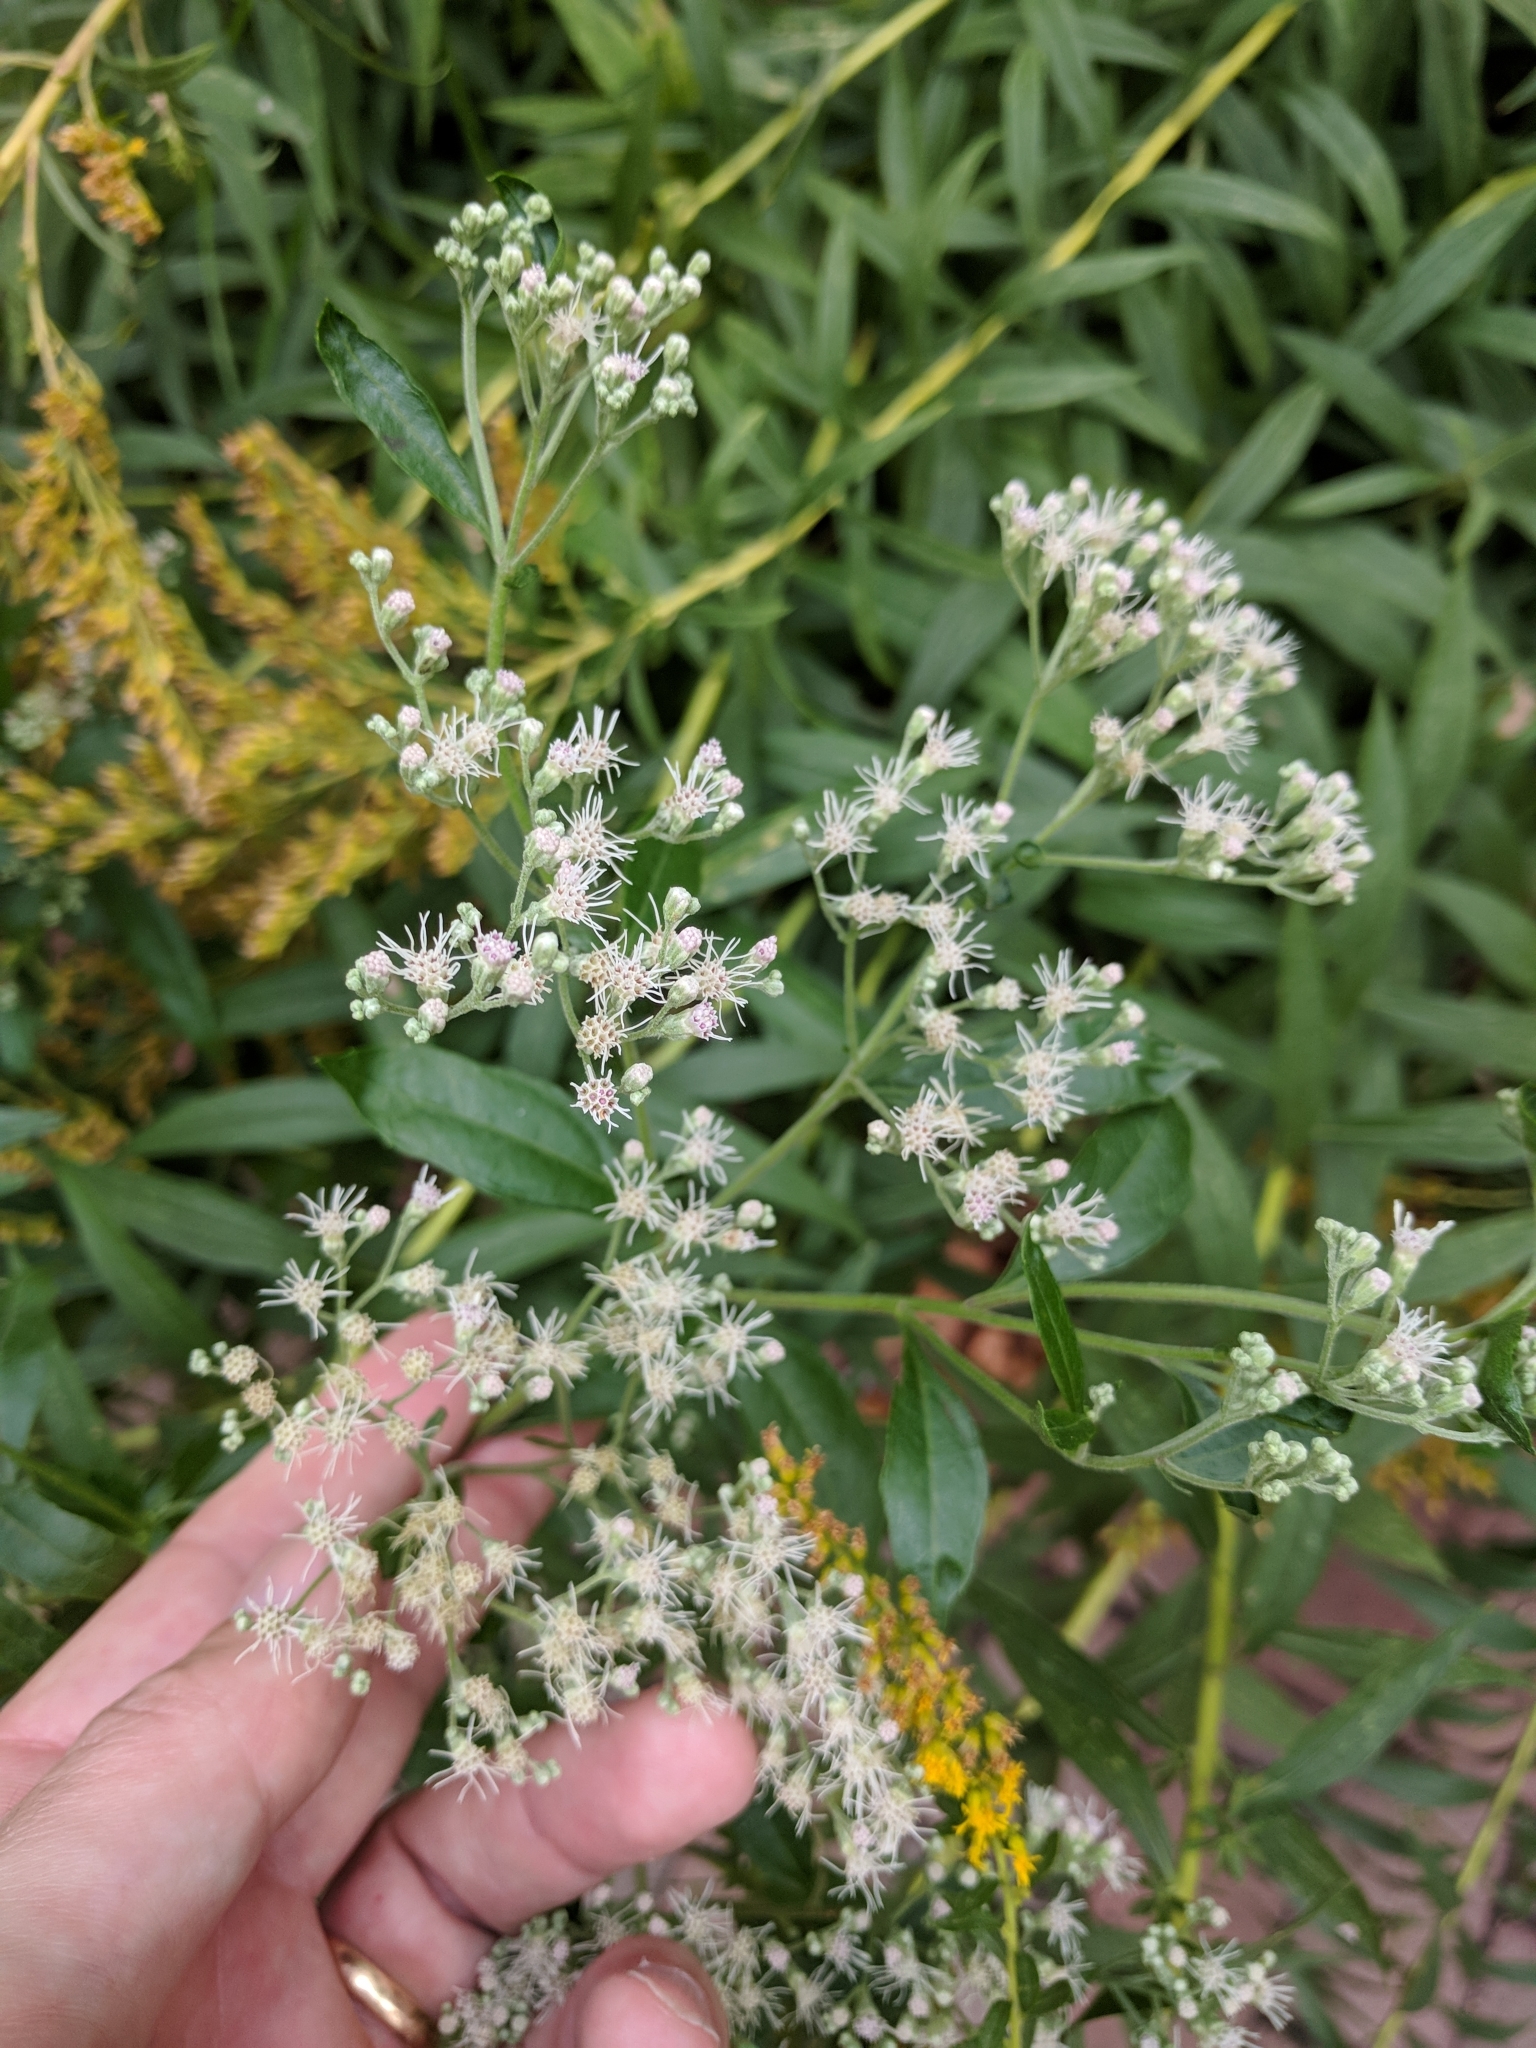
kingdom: Plantae
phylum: Tracheophyta
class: Magnoliopsida
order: Asterales
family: Asteraceae
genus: Eupatorium
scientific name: Eupatorium serotinum
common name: Late boneset
